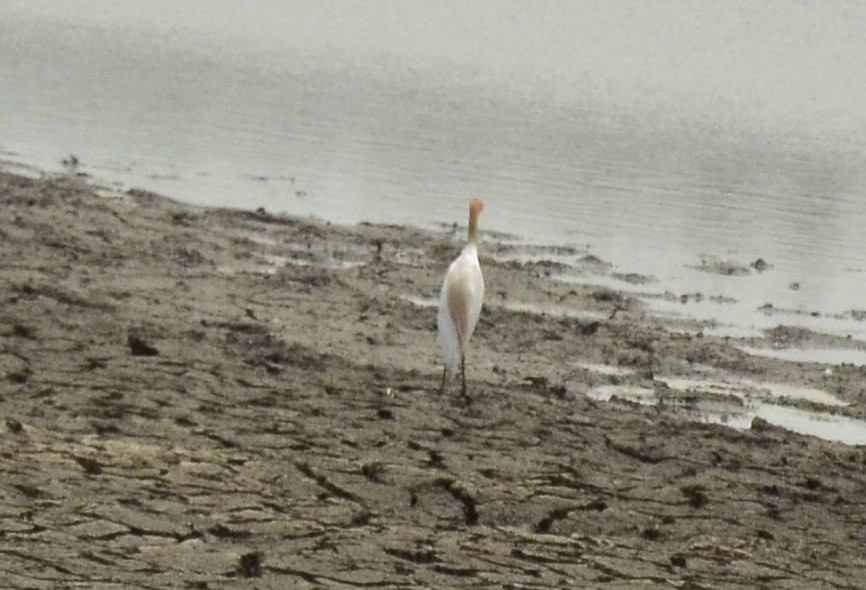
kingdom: Animalia
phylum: Chordata
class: Aves
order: Pelecaniformes
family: Ardeidae
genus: Bubulcus
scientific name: Bubulcus coromandus
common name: Eastern cattle egret
